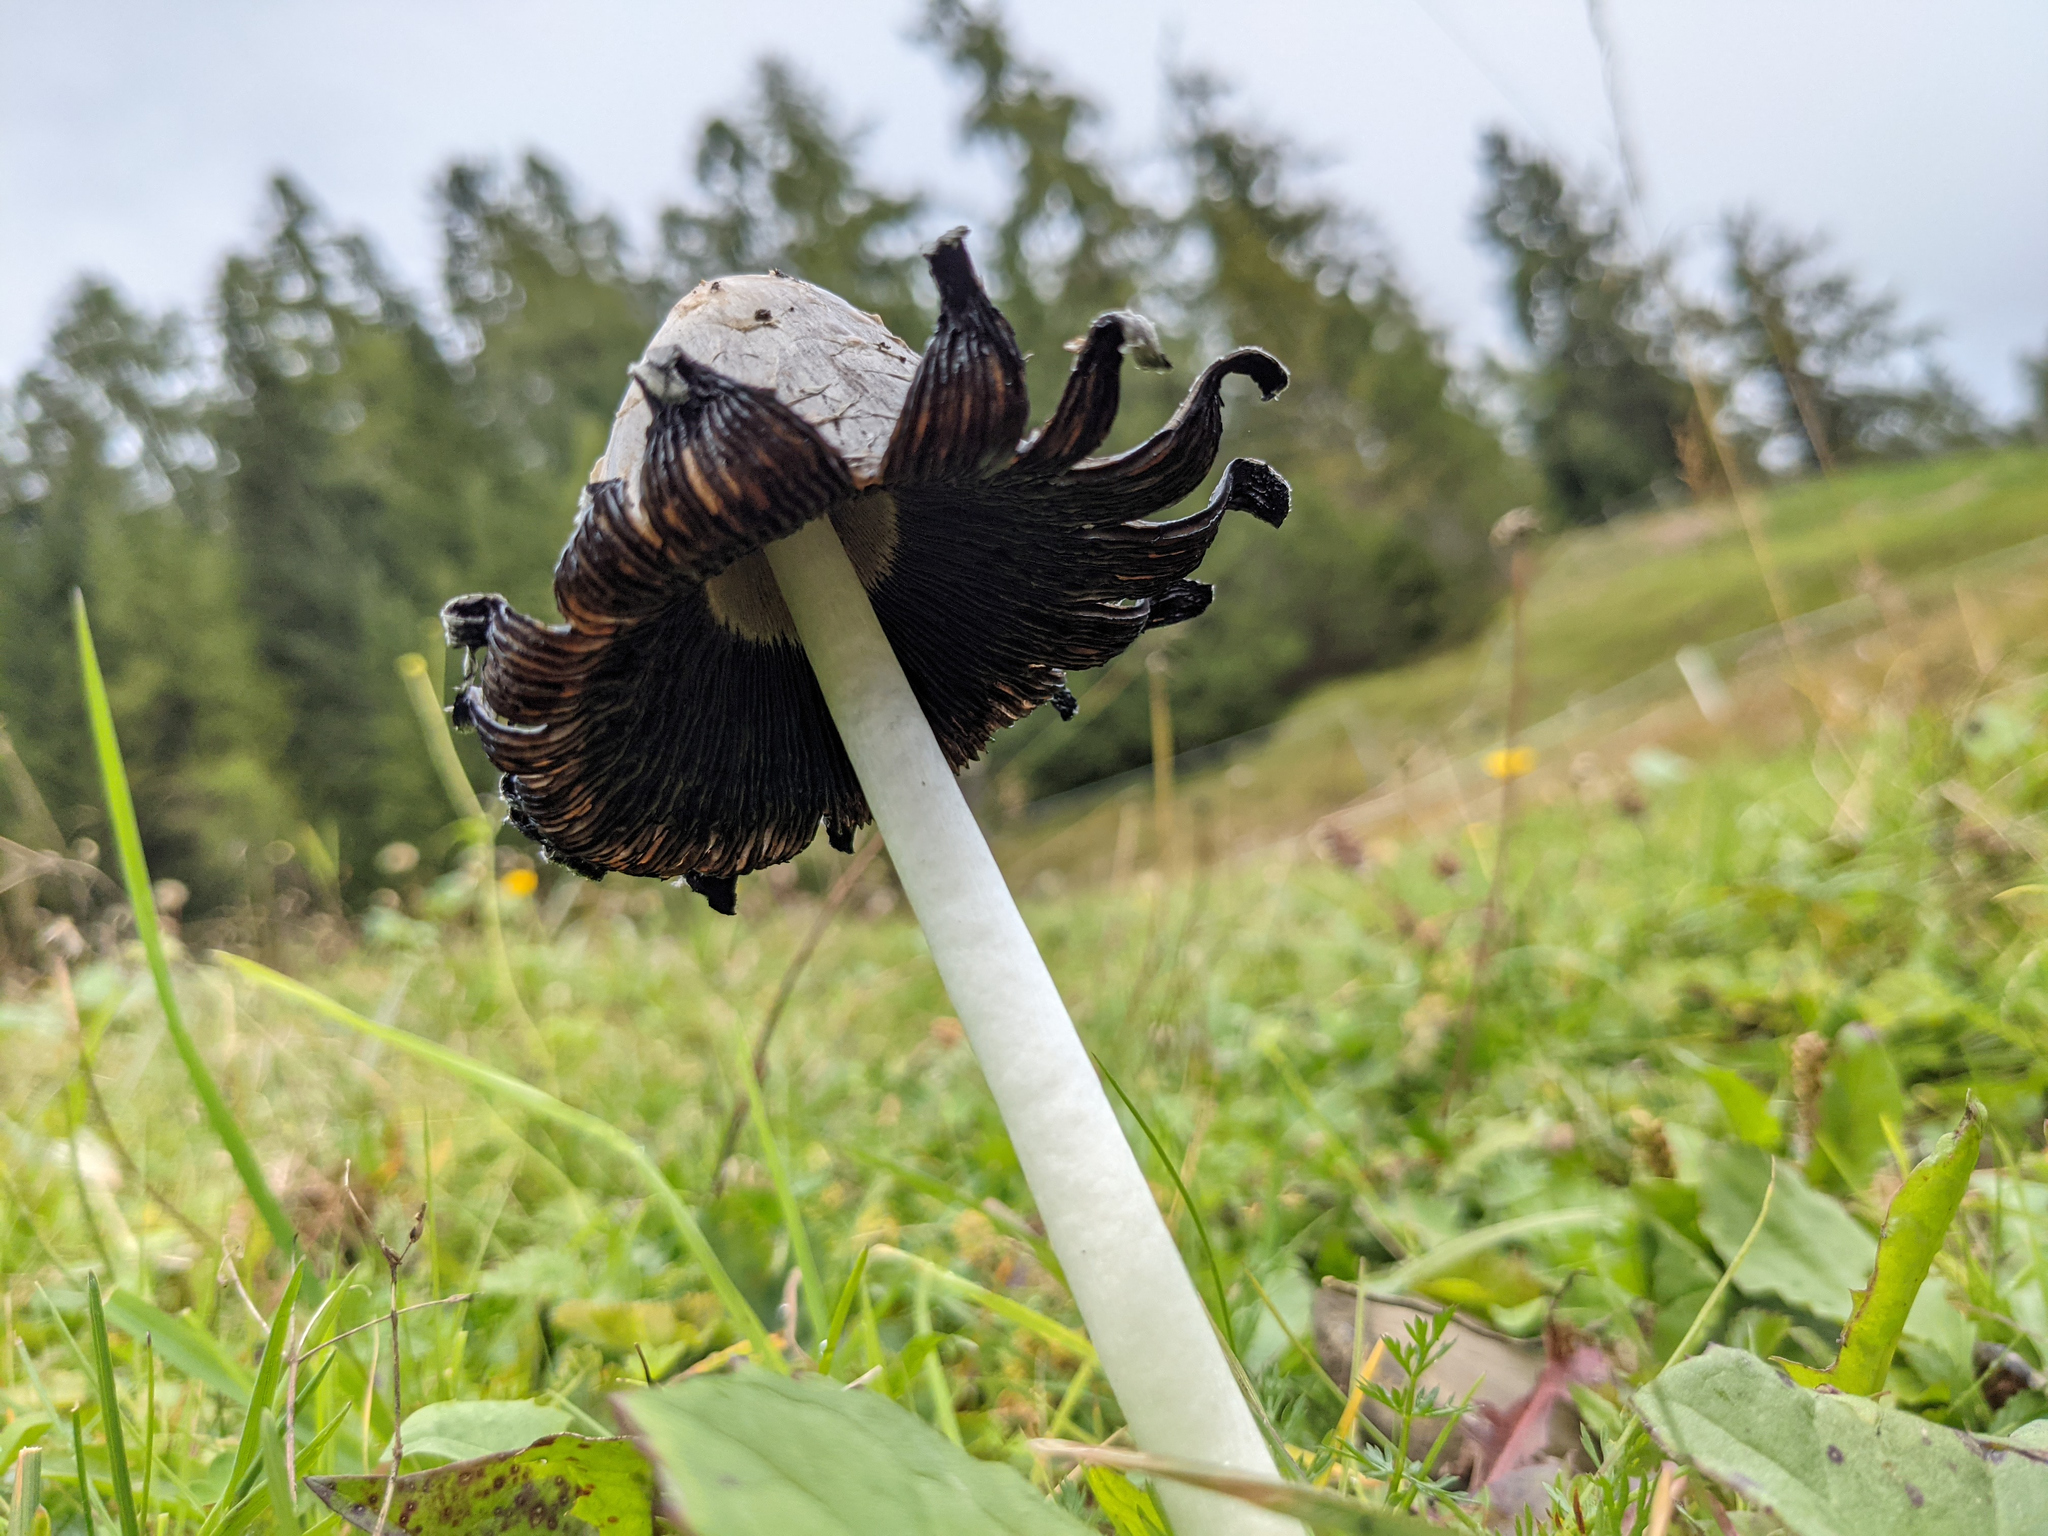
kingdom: Fungi
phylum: Basidiomycota
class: Agaricomycetes
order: Agaricales
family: Agaricaceae
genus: Coprinus
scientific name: Coprinus comatus
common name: Lawyer's wig
